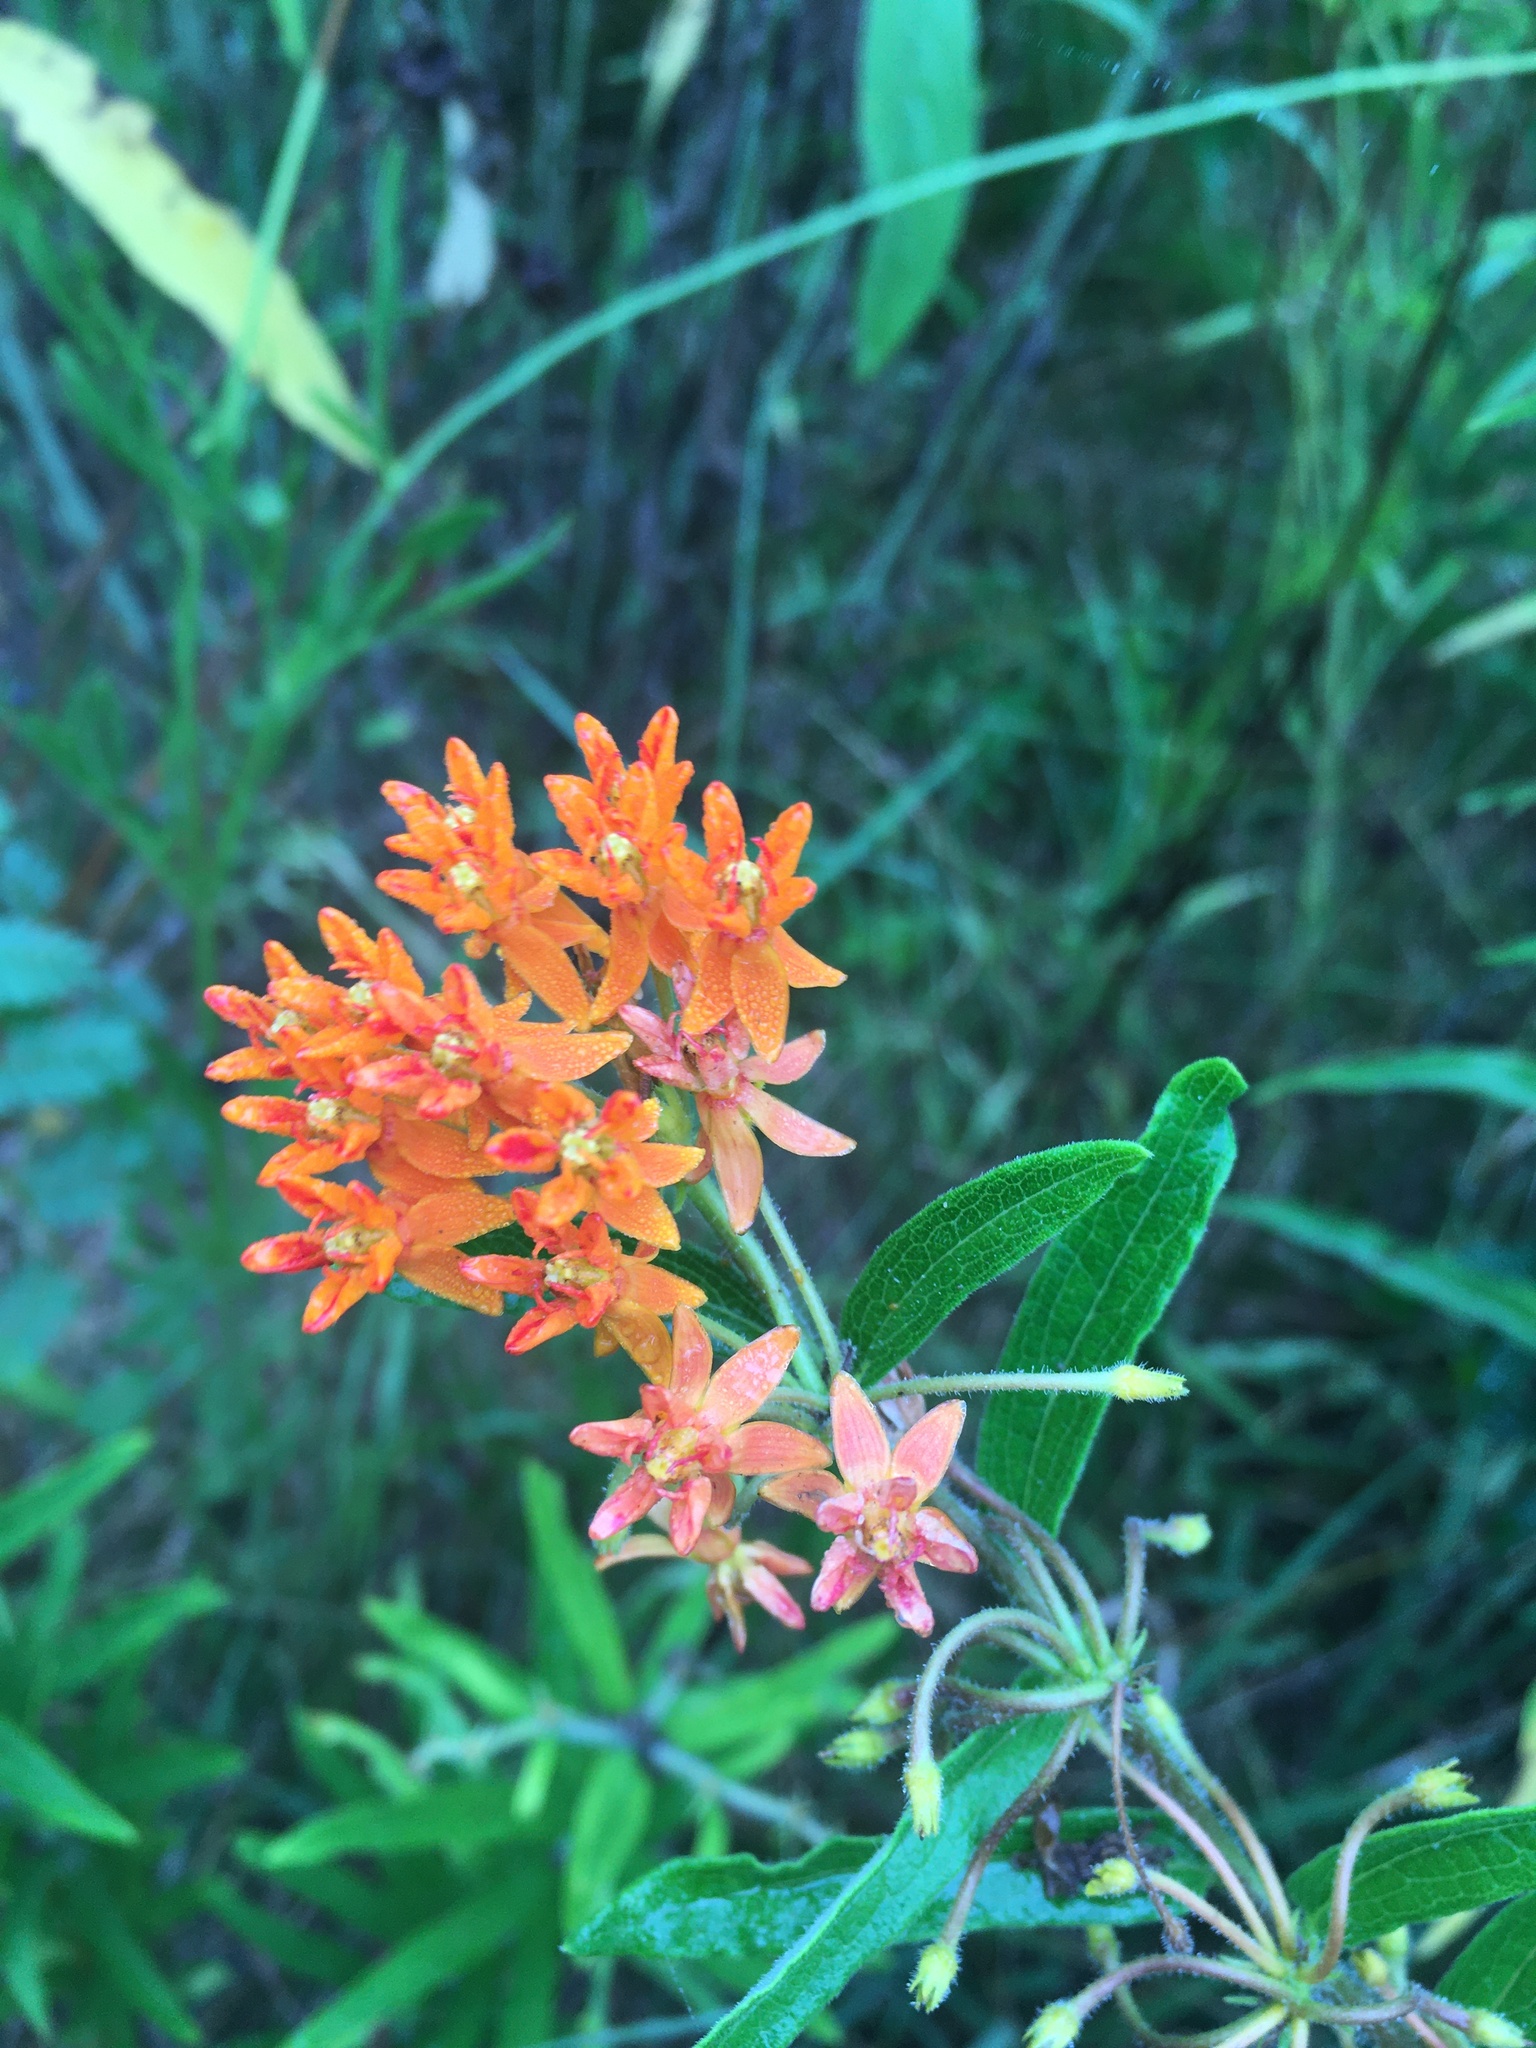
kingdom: Plantae
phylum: Tracheophyta
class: Magnoliopsida
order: Gentianales
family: Apocynaceae
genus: Asclepias
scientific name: Asclepias tuberosa
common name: Butterfly milkweed
